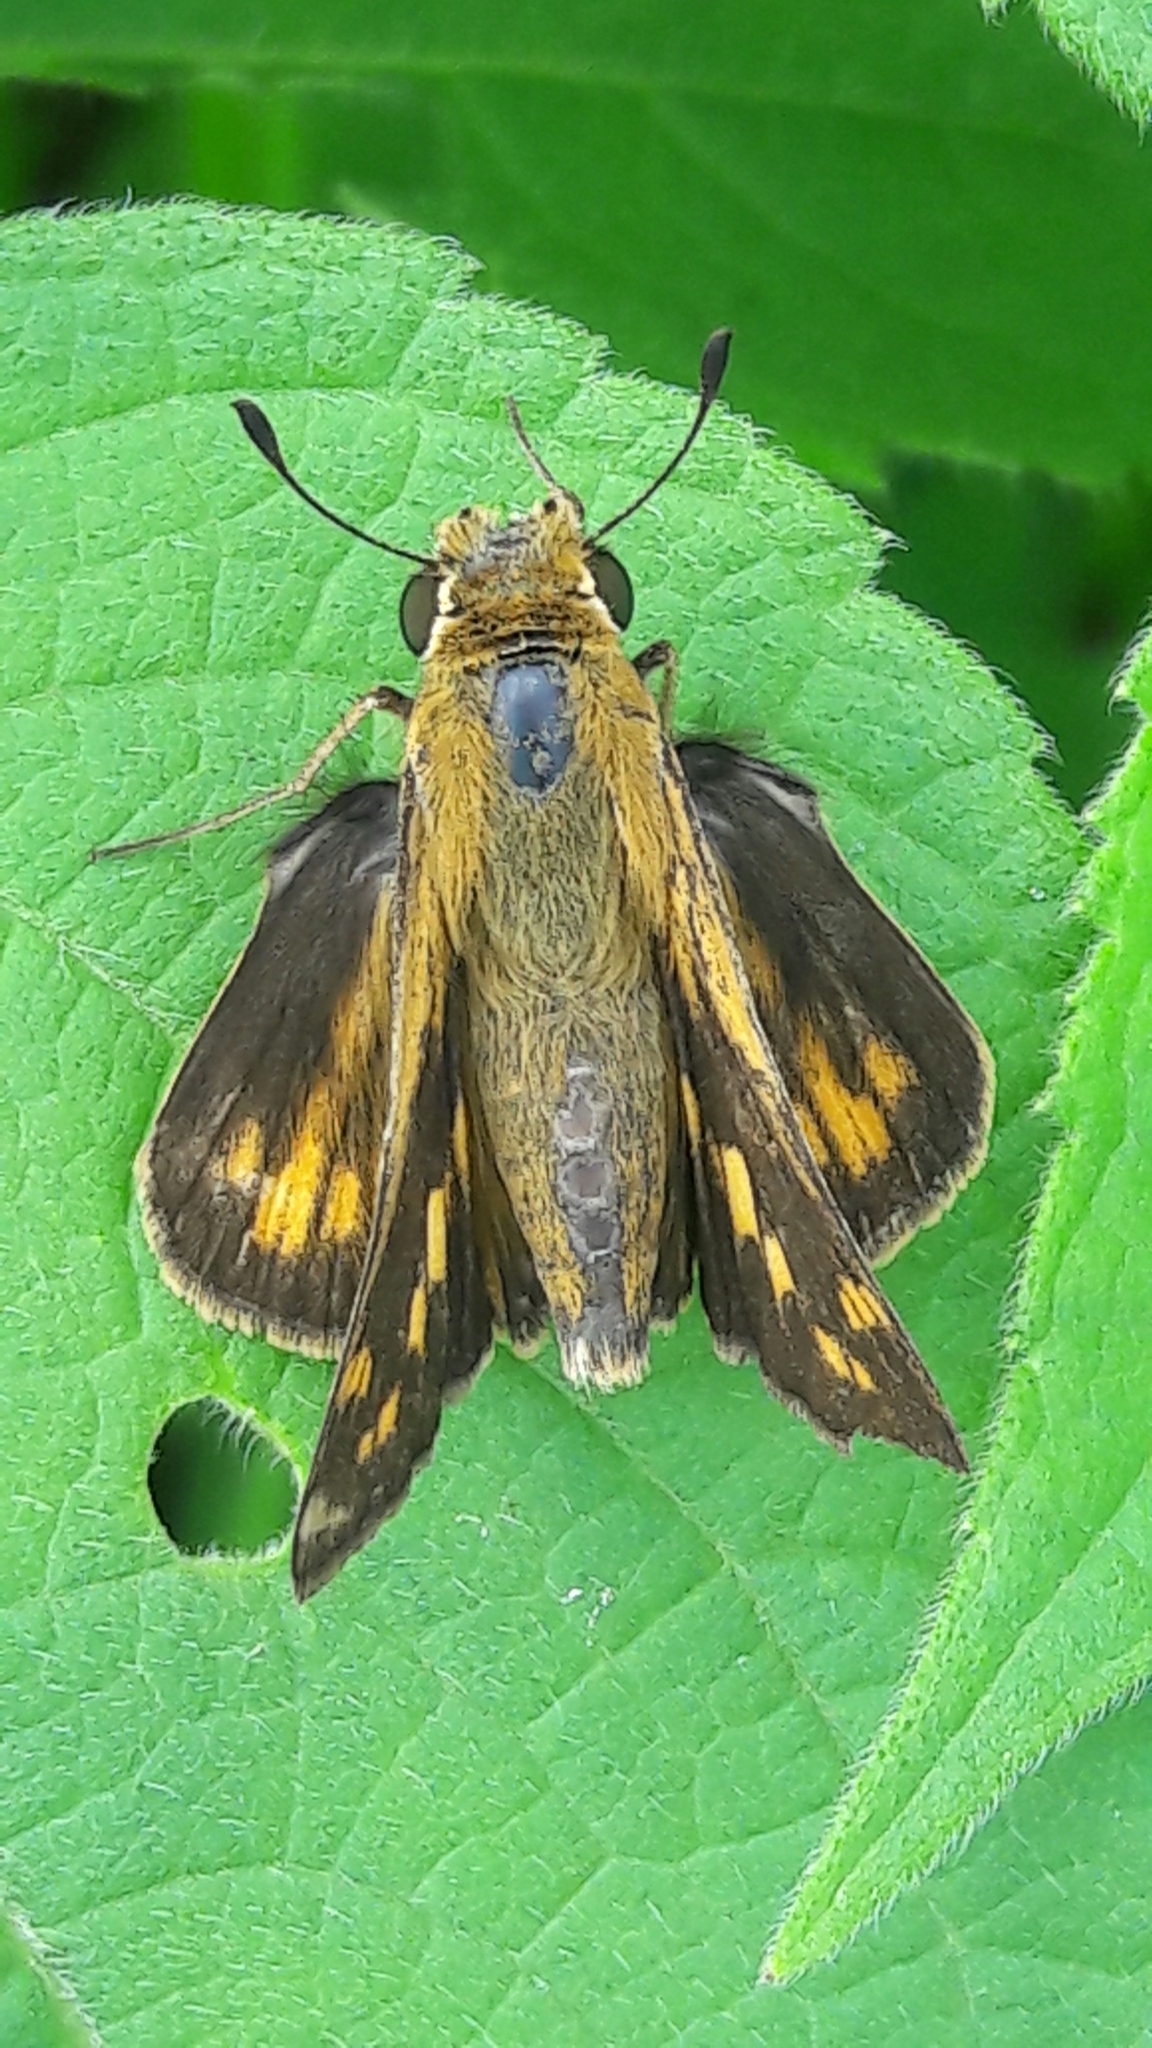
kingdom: Animalia
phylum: Arthropoda
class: Insecta
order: Lepidoptera
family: Hesperiidae
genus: Hylephila
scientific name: Hylephila phyleus
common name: Fiery skipper
